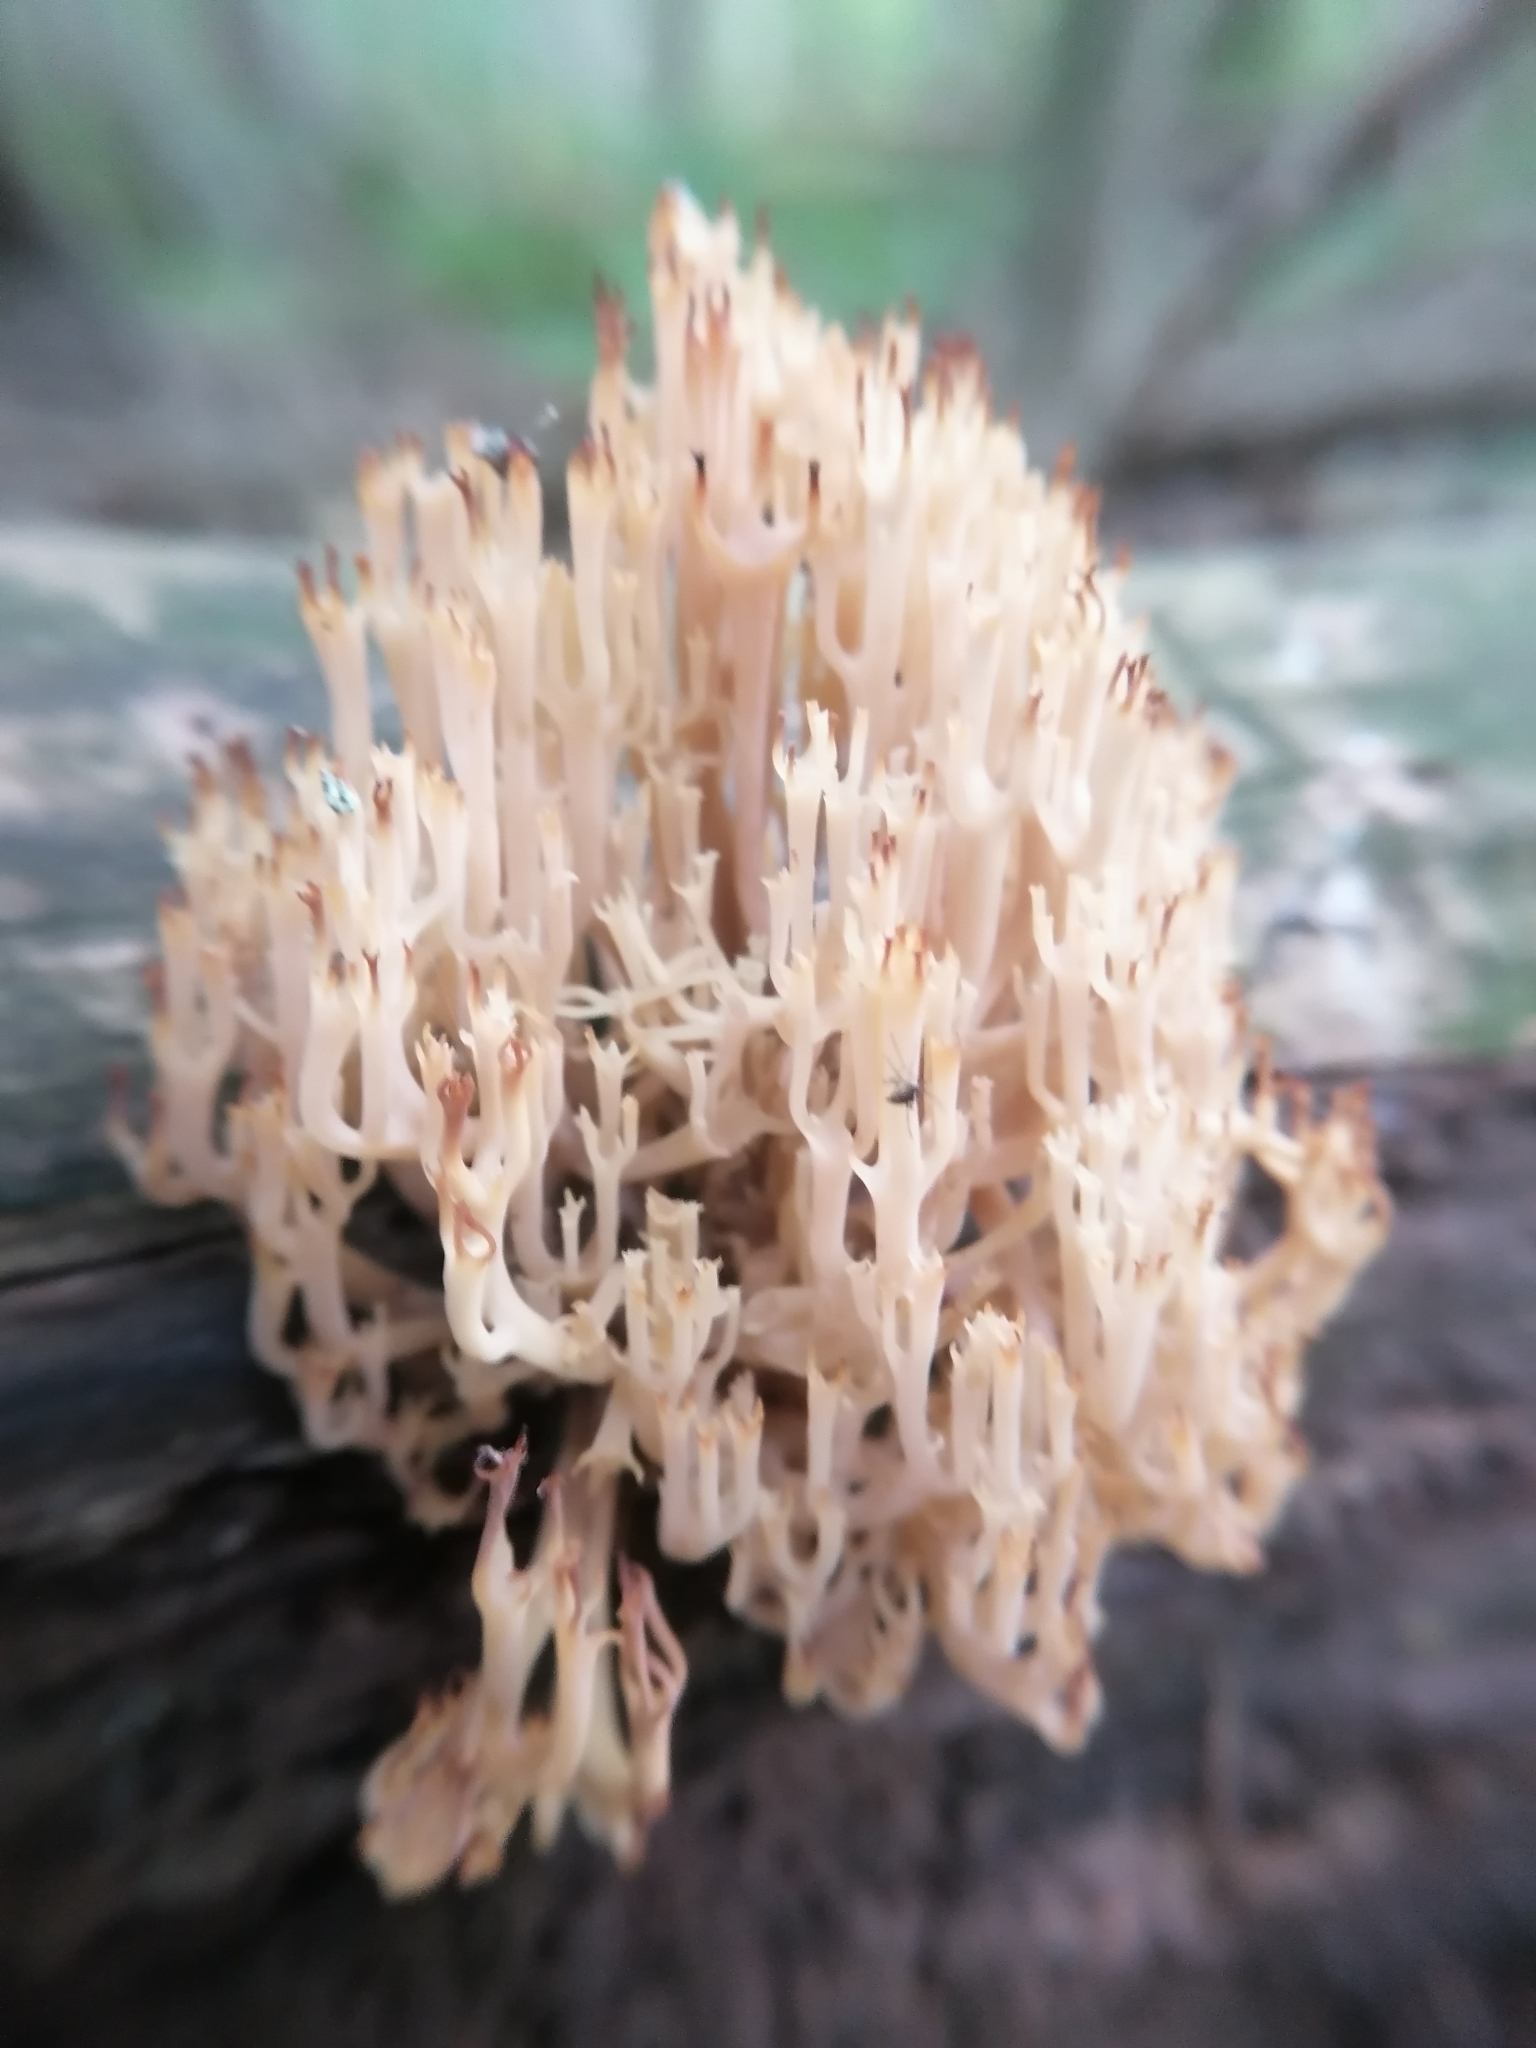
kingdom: Fungi
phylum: Basidiomycota
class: Agaricomycetes
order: Russulales
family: Auriscalpiaceae
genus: Artomyces
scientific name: Artomyces pyxidatus
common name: Crown-tipped coral fungus
